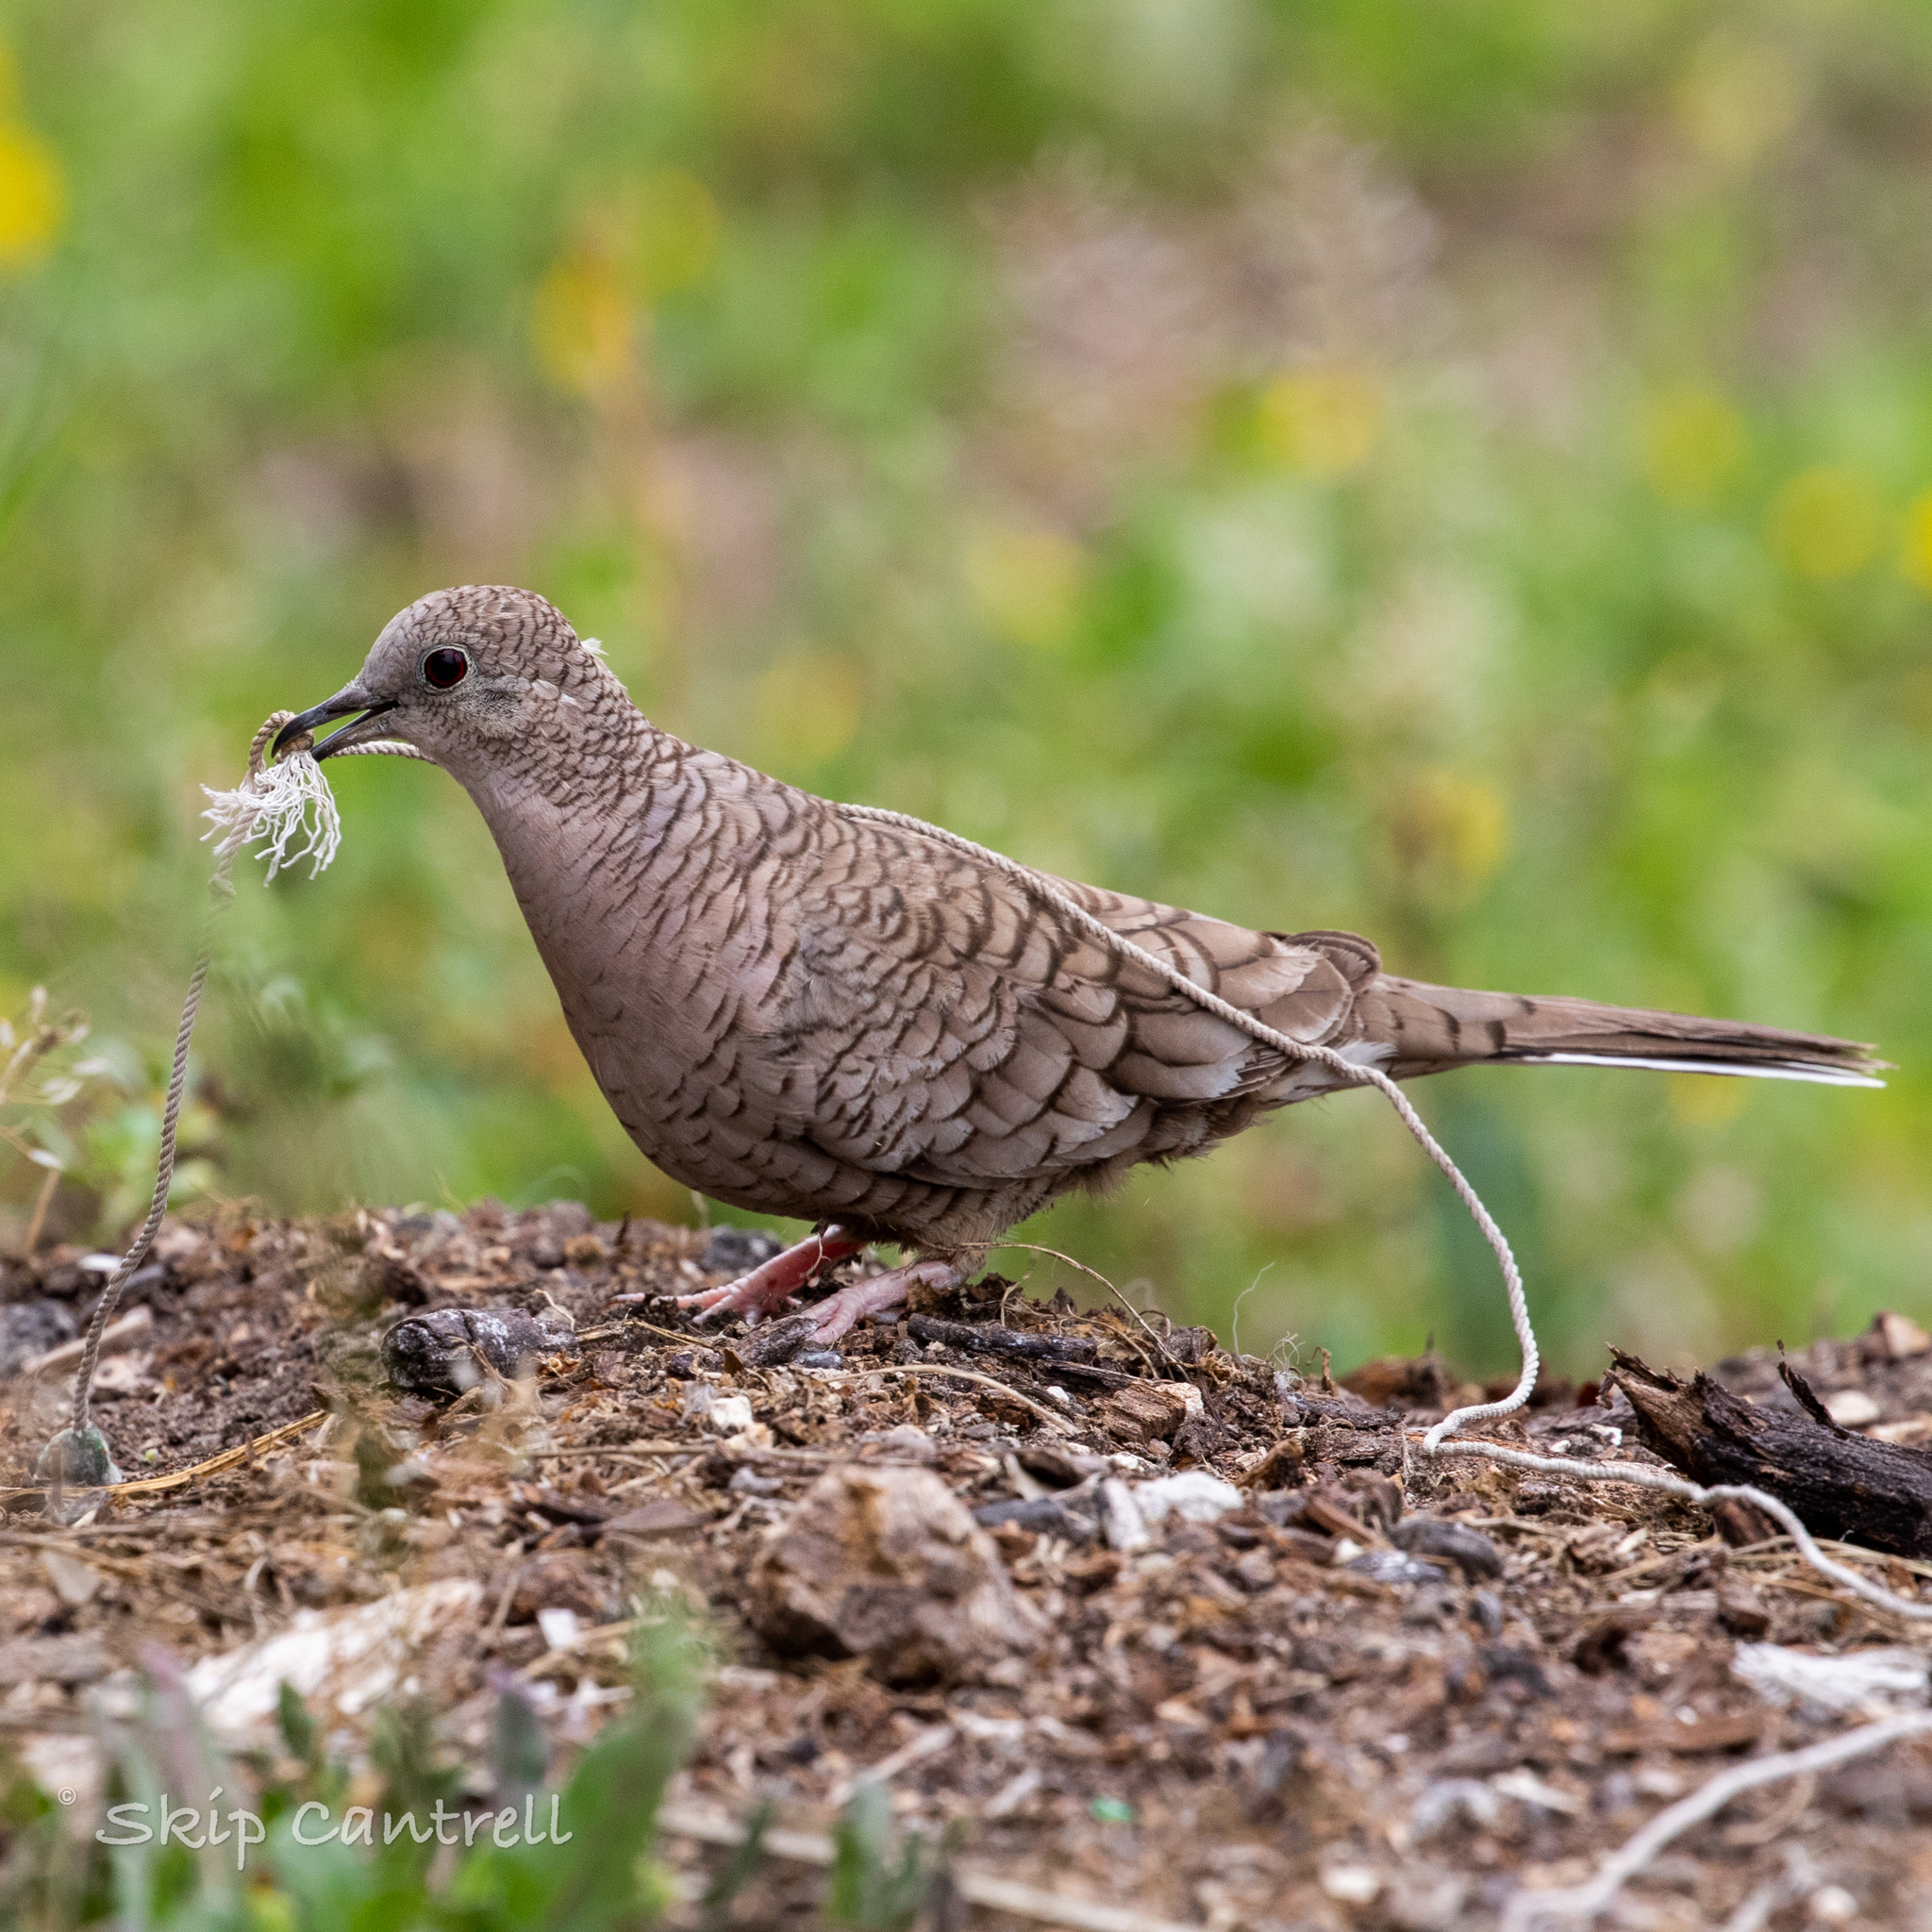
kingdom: Animalia
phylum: Chordata
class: Aves
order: Columbiformes
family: Columbidae
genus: Columbina
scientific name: Columbina inca
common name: Inca dove
